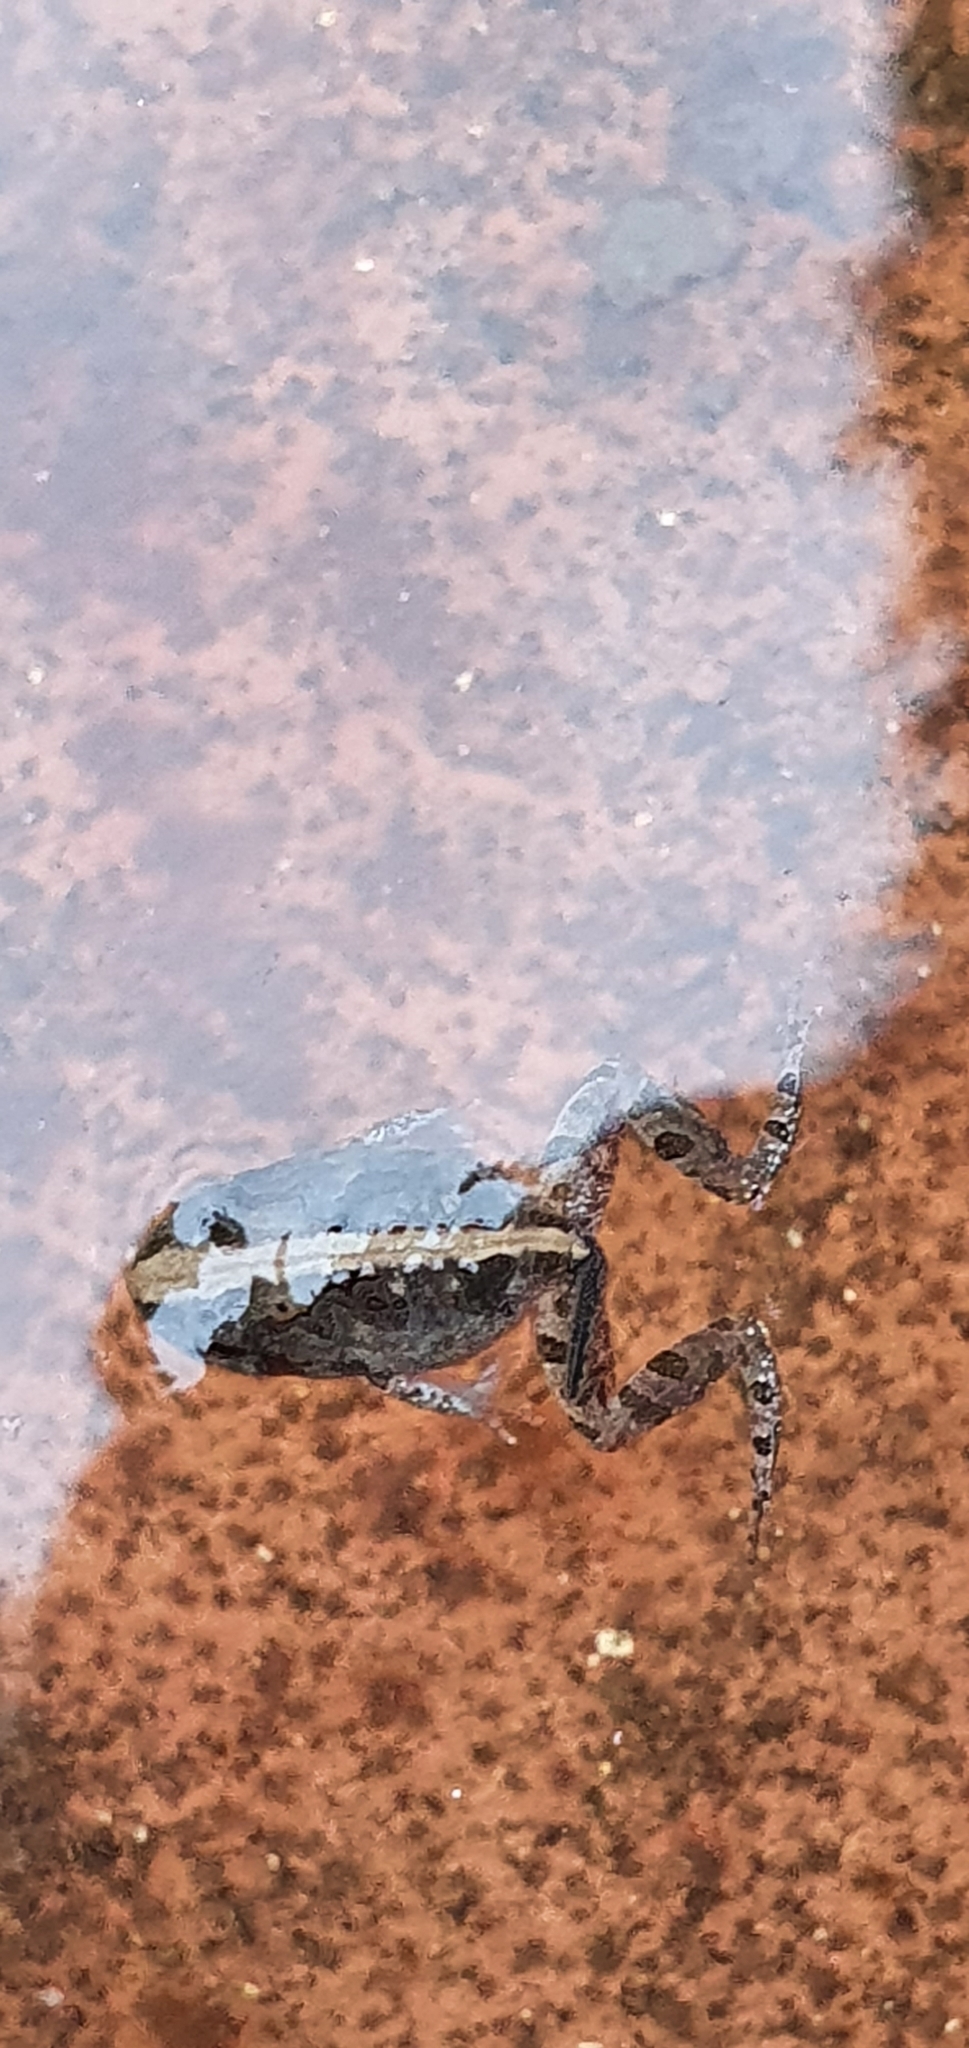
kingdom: Animalia
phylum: Chordata
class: Amphibia
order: Anura
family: Limnodynastidae
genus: Platyplectrum
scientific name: Platyplectrum ornatum
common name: Ornate burrowing frog
